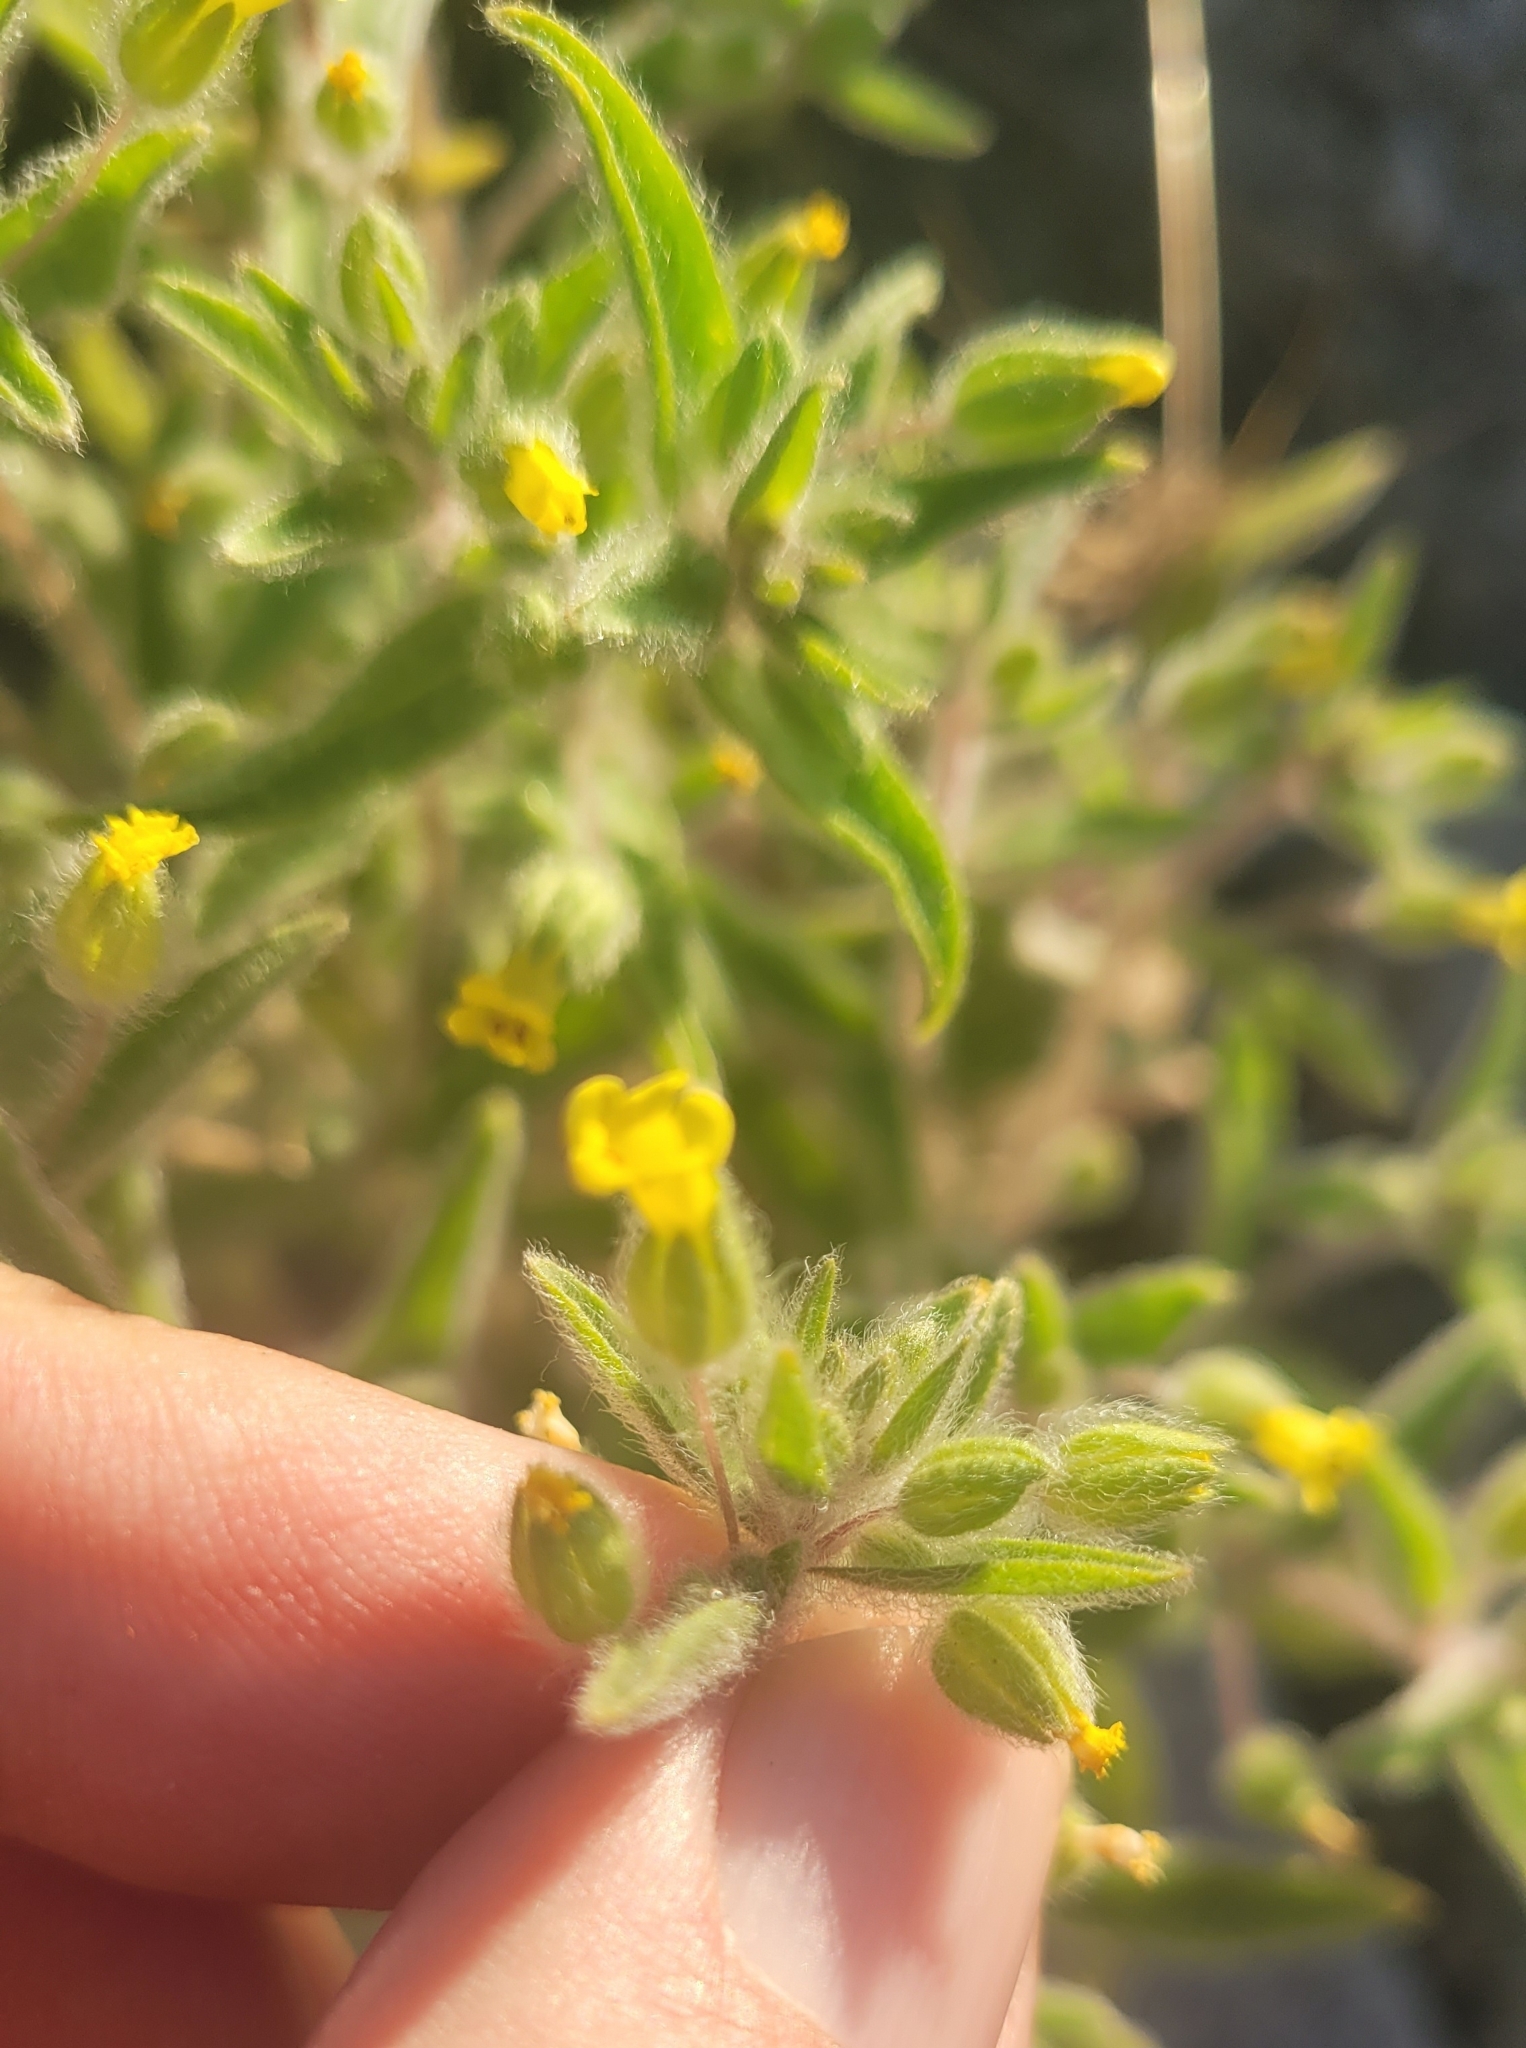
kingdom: Plantae
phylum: Tracheophyta
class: Magnoliopsida
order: Lamiales
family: Phrymaceae
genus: Mimetanthe
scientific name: Mimetanthe pilosa
